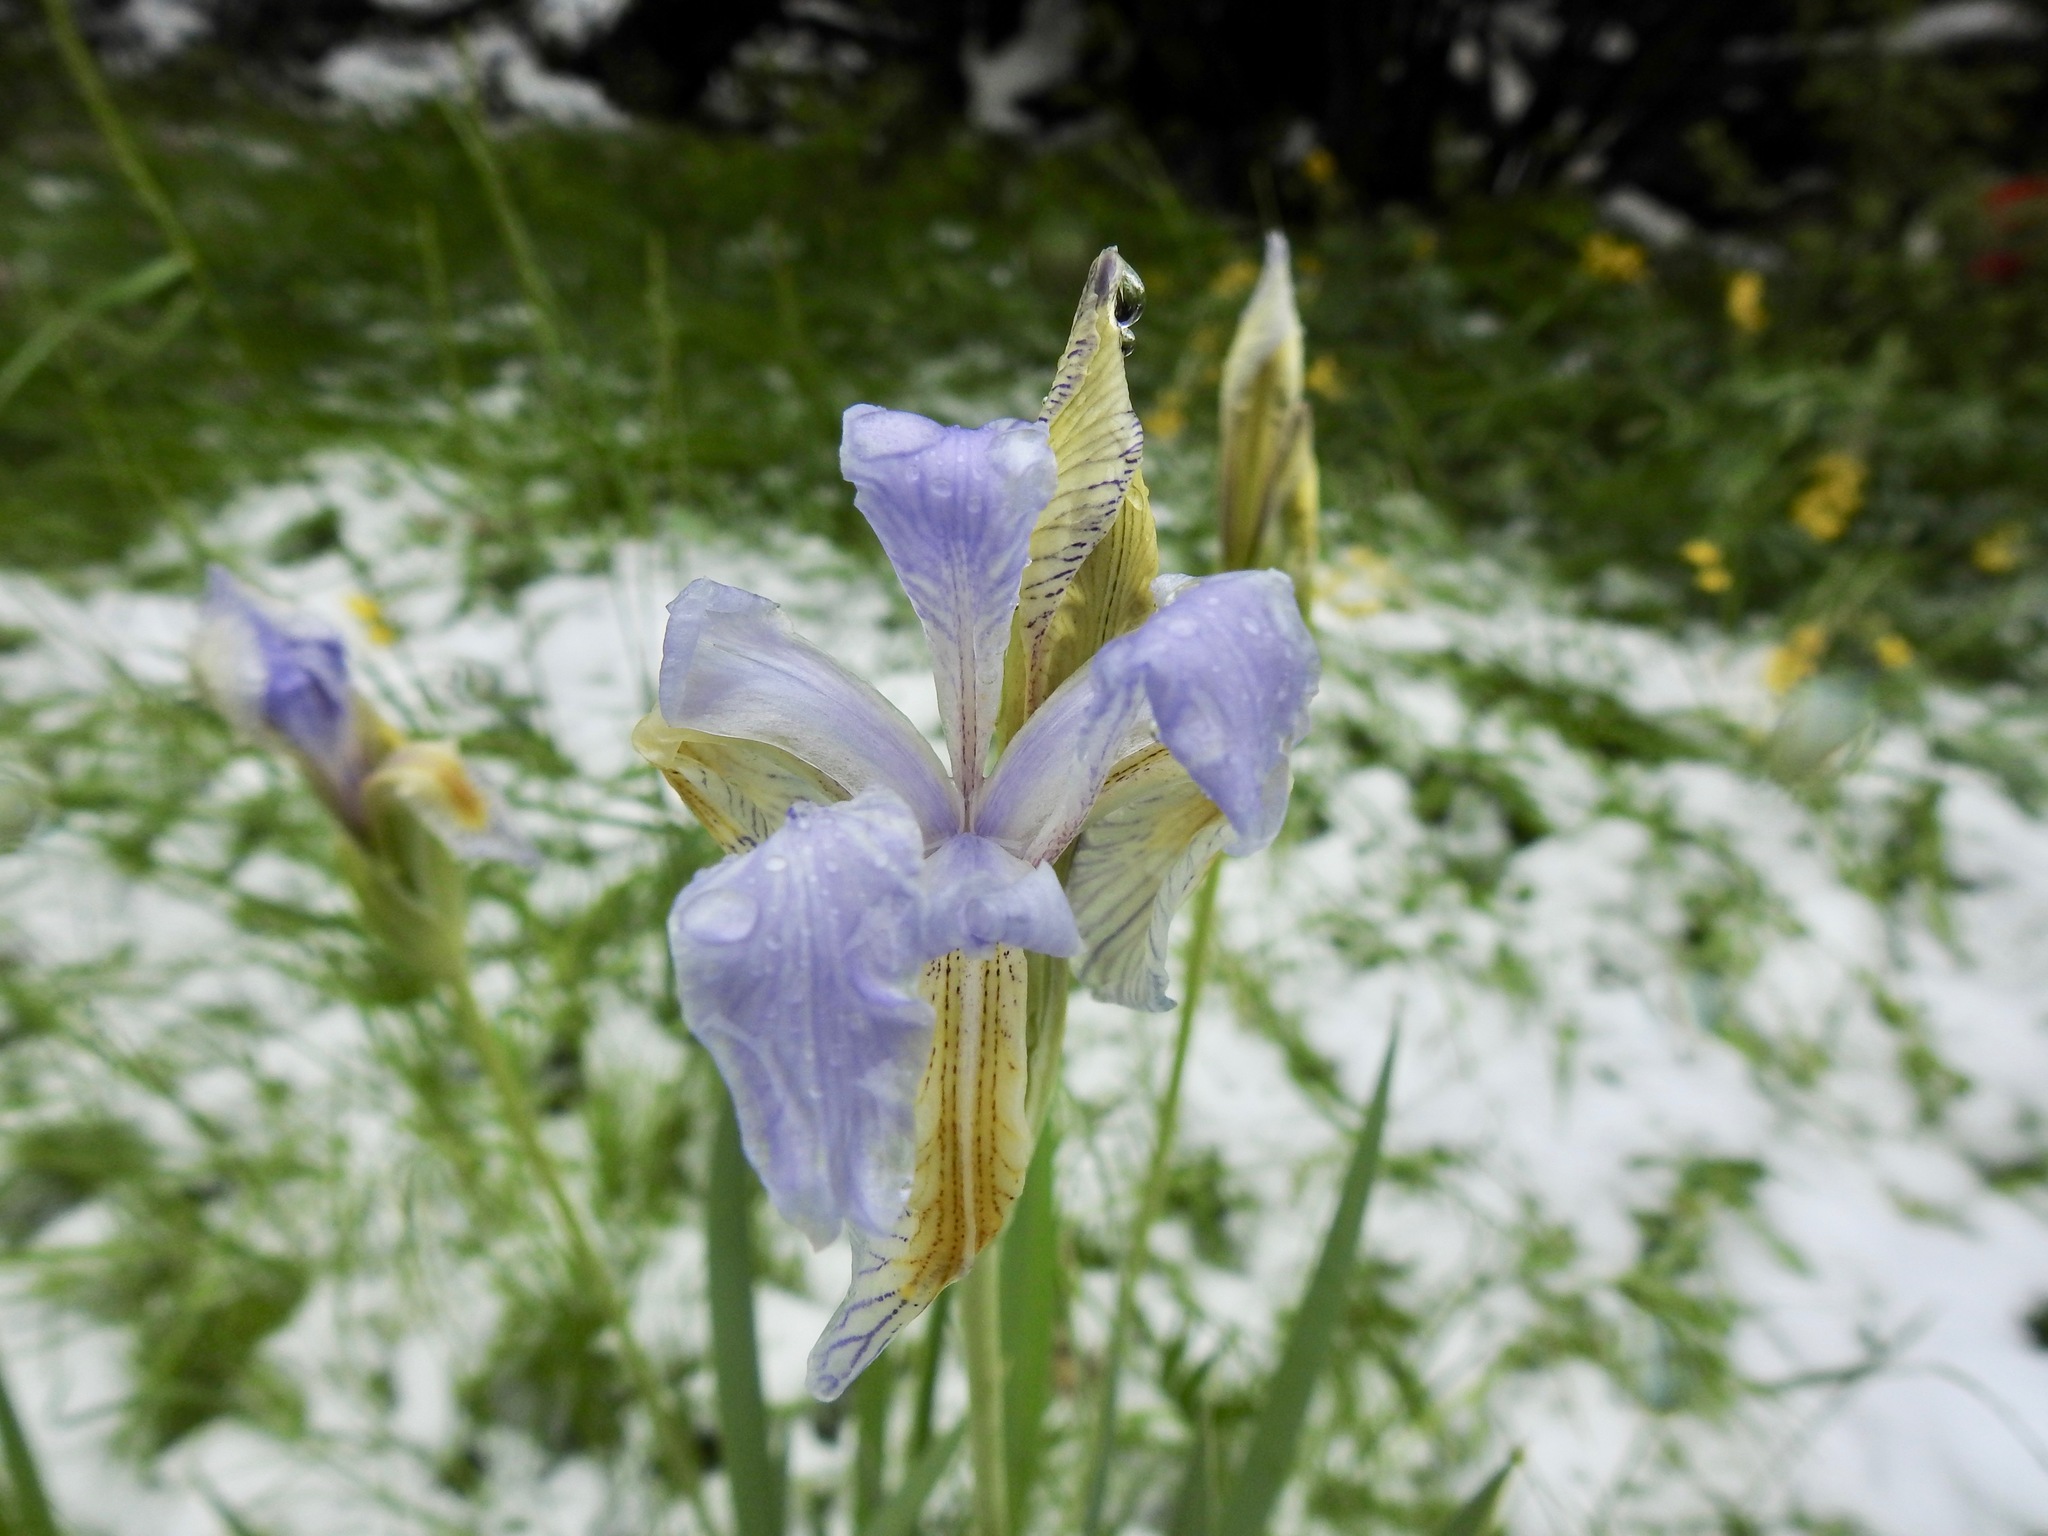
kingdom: Plantae
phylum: Tracheophyta
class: Liliopsida
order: Asparagales
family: Iridaceae
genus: Iris
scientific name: Iris missouriensis
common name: Rocky mountain iris
